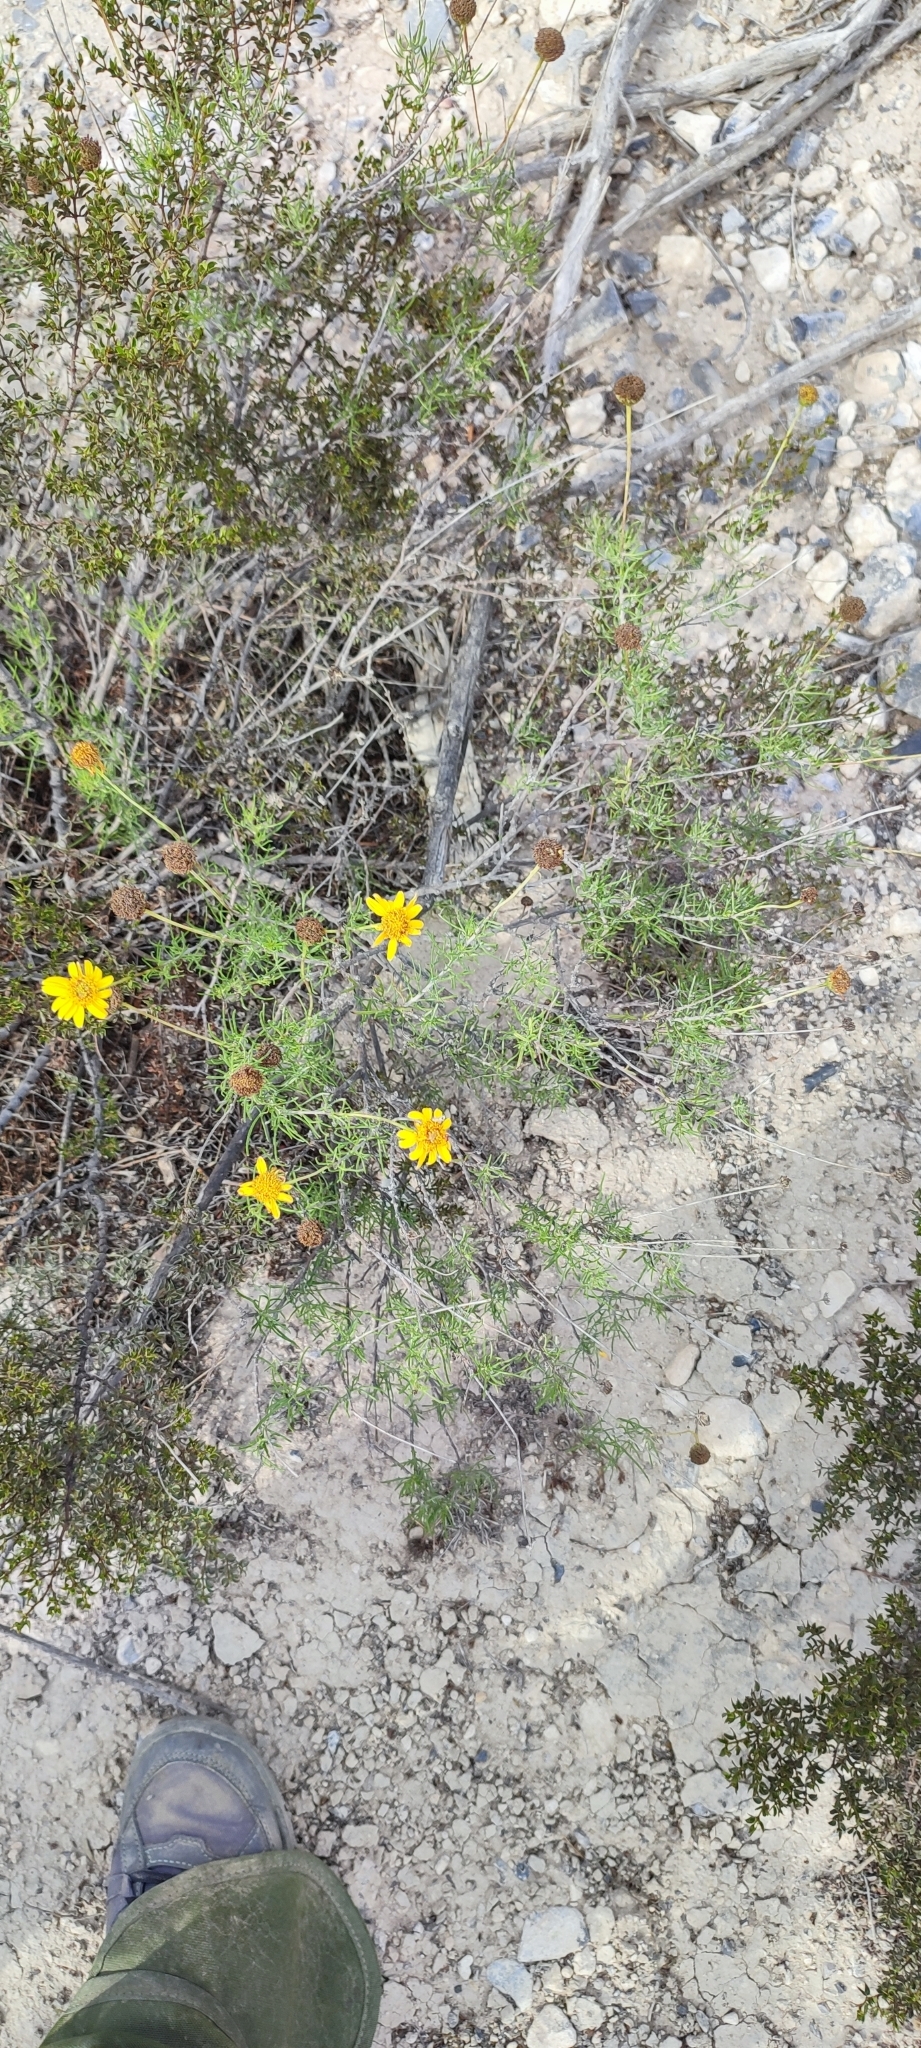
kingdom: Plantae
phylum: Tracheophyta
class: Magnoliopsida
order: Asterales
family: Asteraceae
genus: Sidneya
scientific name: Sidneya tenuifolia
